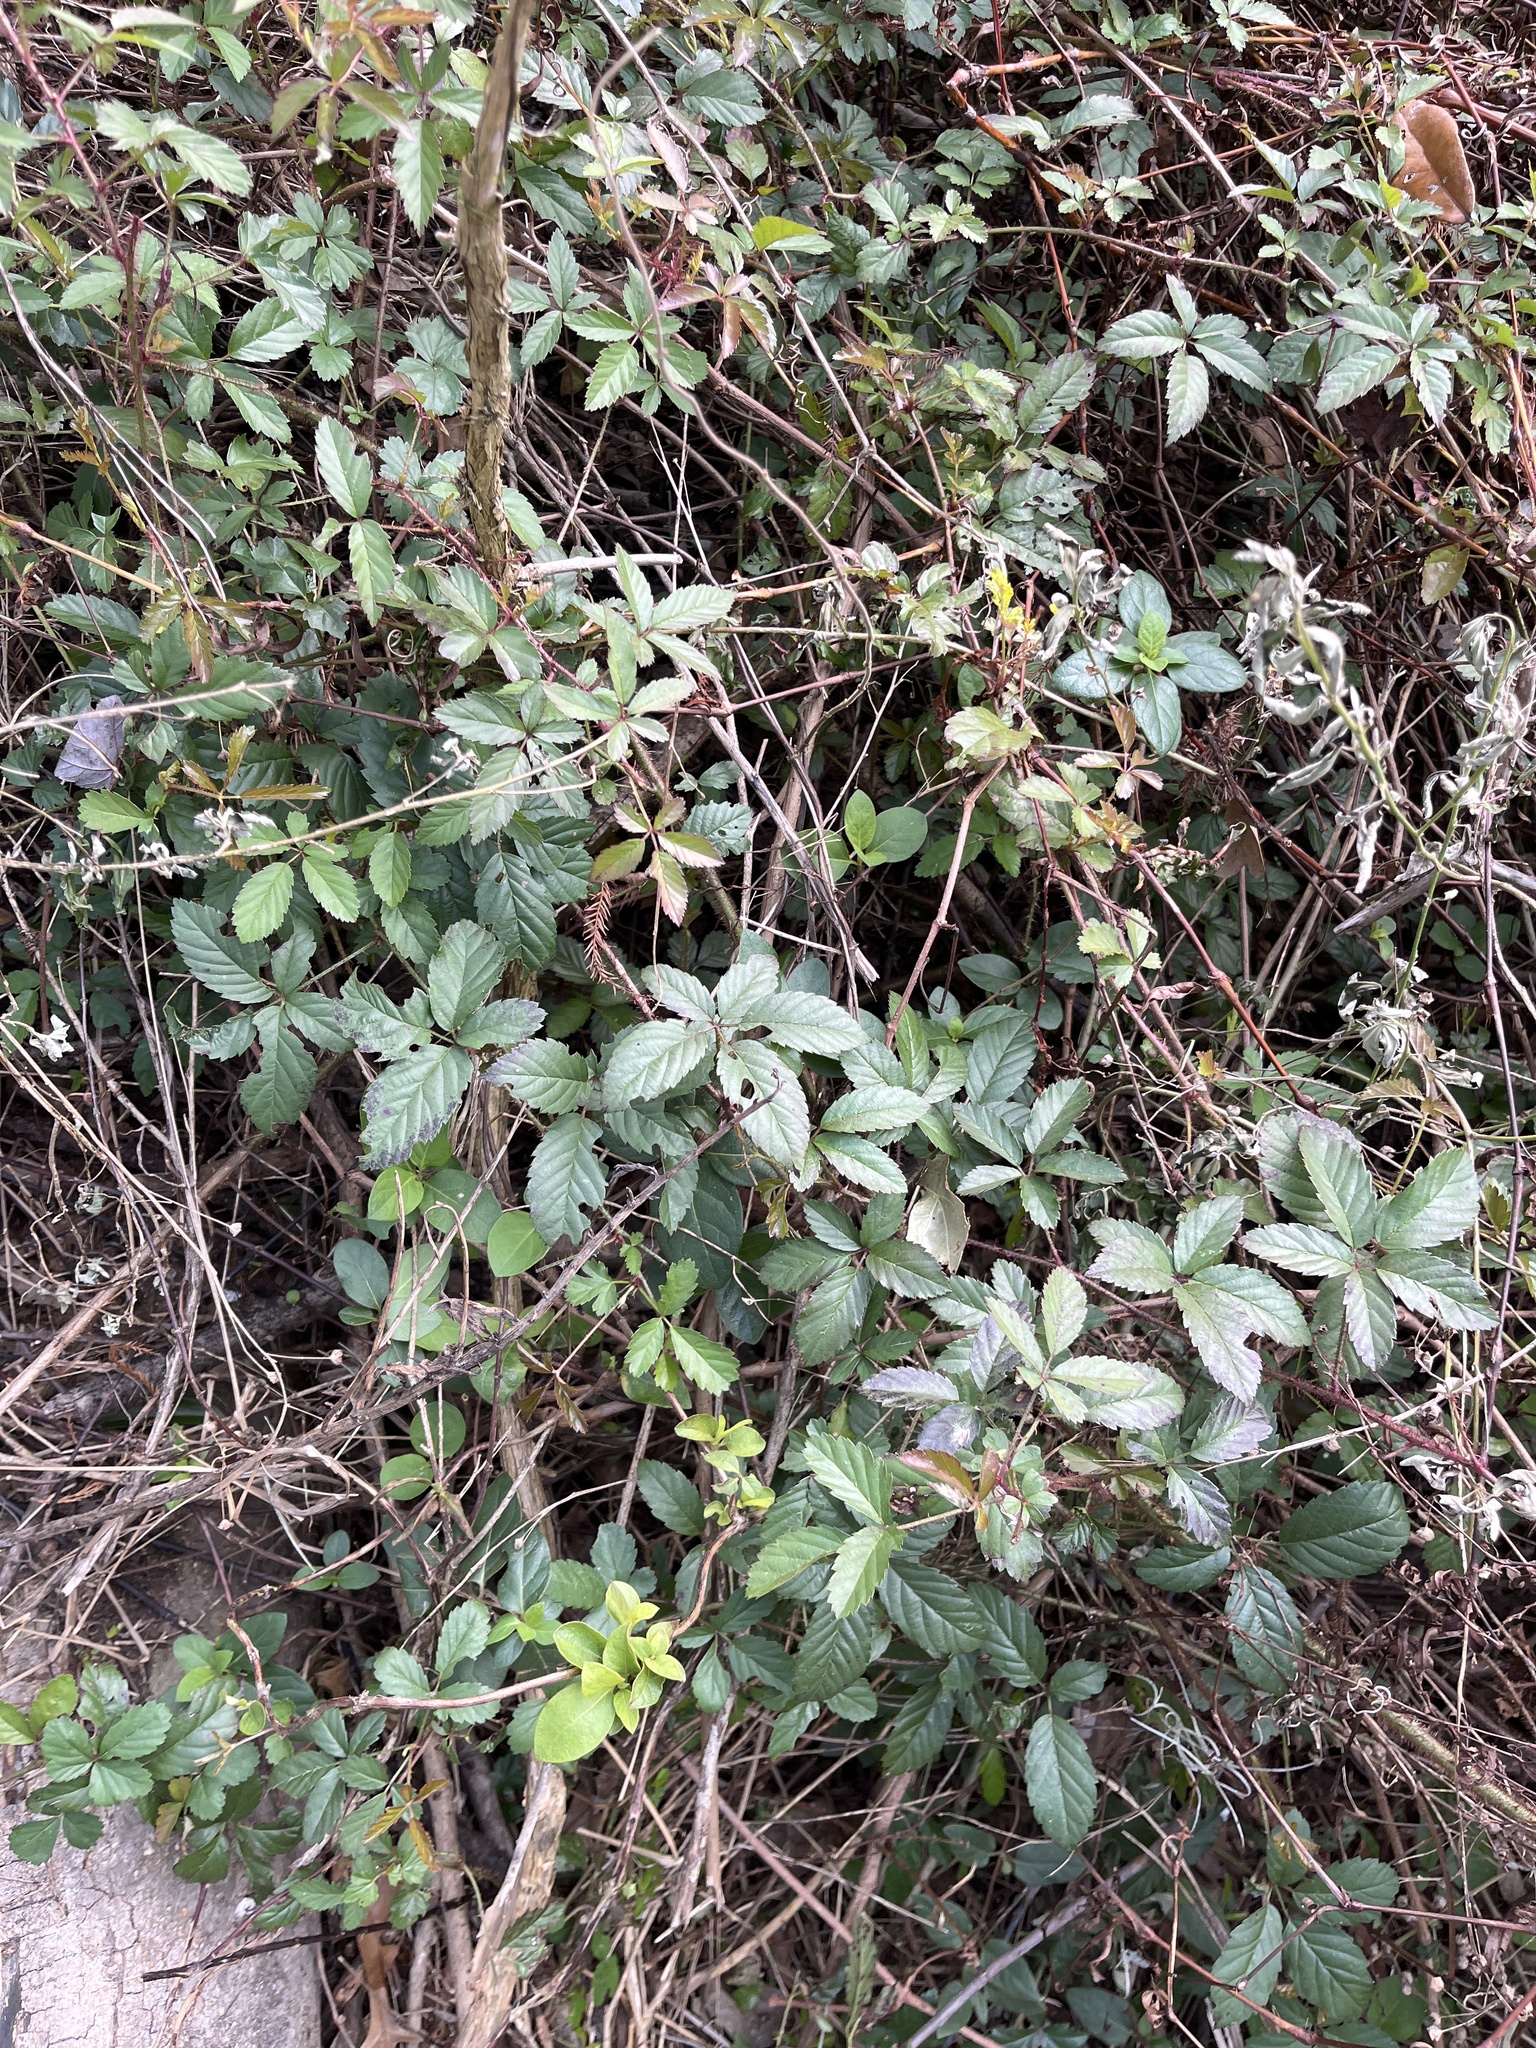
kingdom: Plantae
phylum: Tracheophyta
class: Magnoliopsida
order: Rosales
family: Rosaceae
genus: Rubus
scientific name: Rubus trivialis
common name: Southern dewberry
